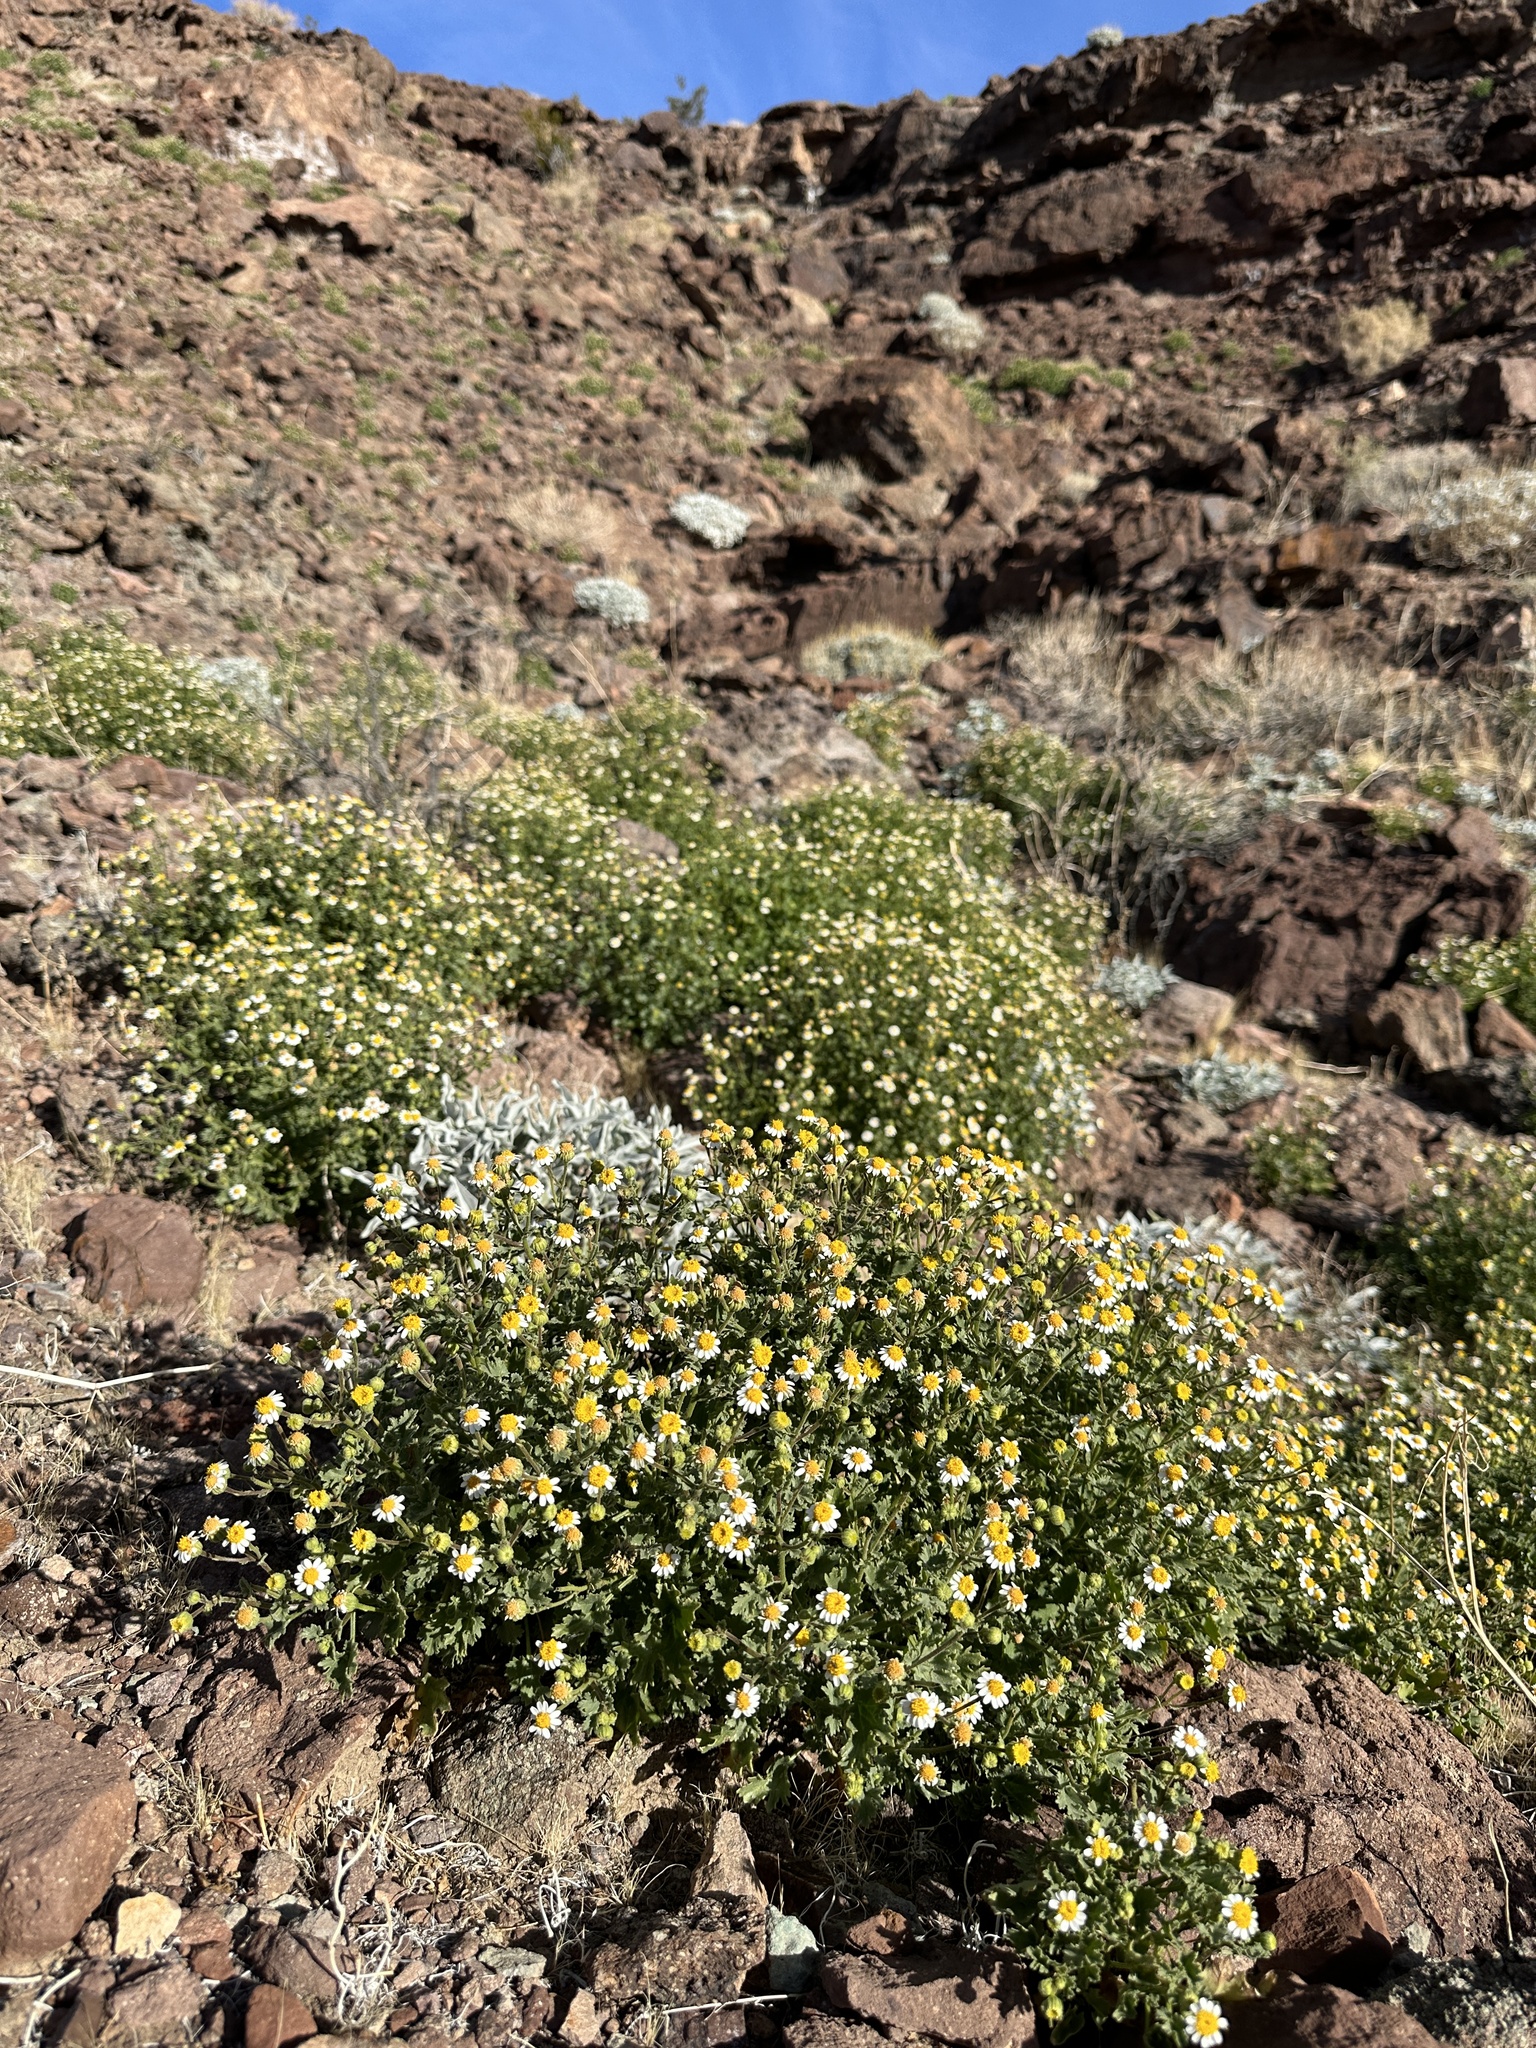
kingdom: Plantae
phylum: Tracheophyta
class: Magnoliopsida
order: Asterales
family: Asteraceae
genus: Laphamia
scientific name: Laphamia emoryi
